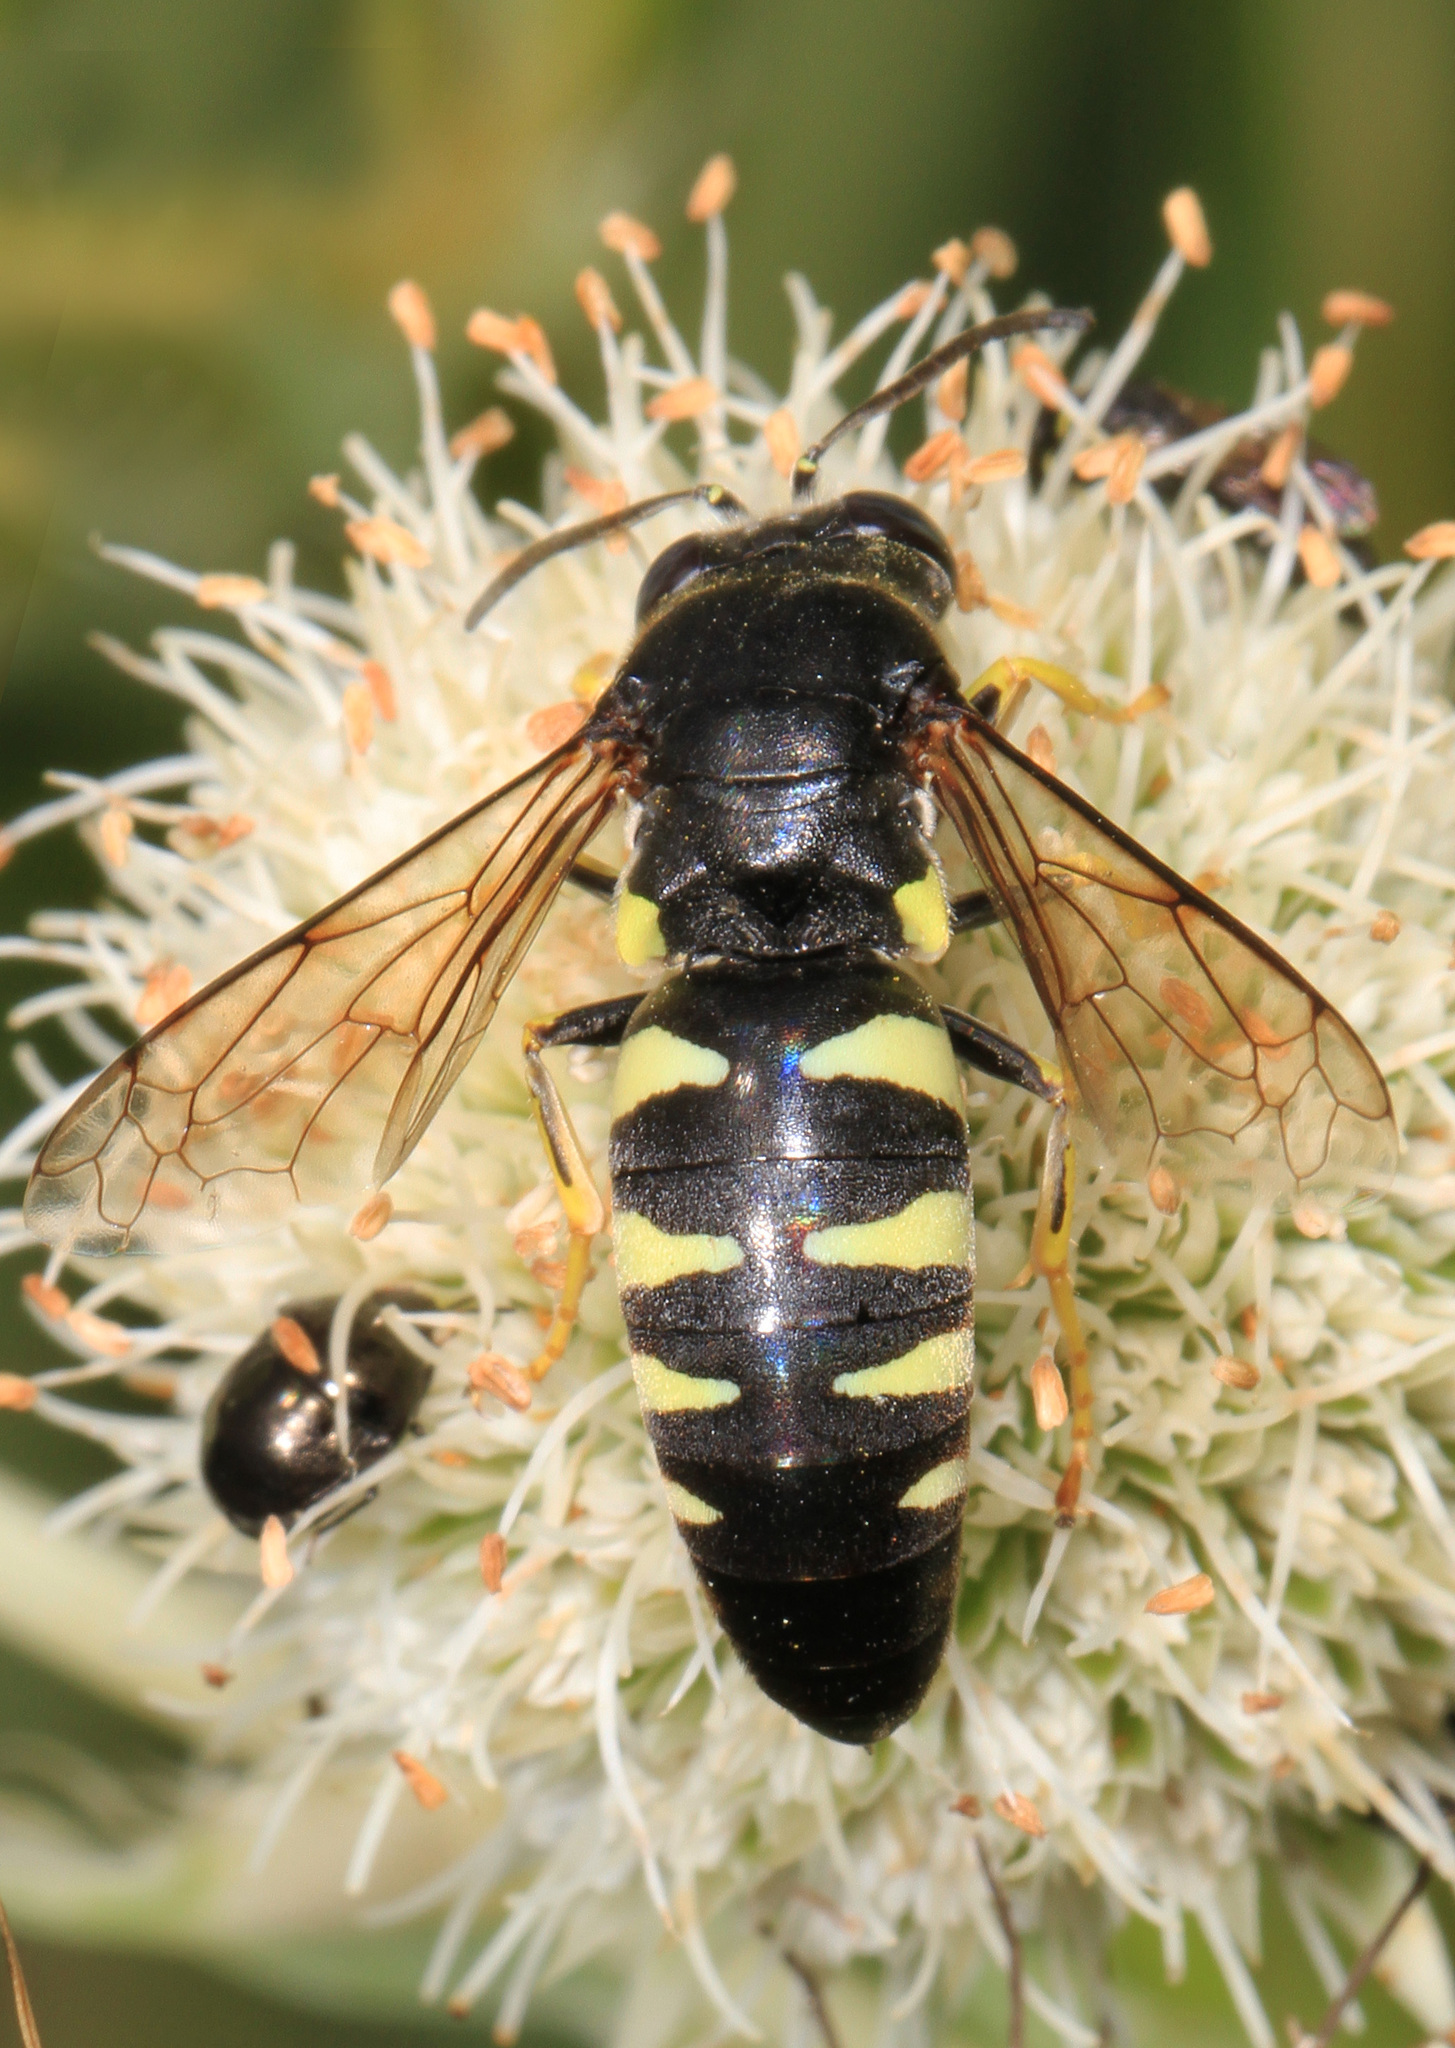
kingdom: Animalia
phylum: Arthropoda
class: Insecta
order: Hymenoptera
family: Crabronidae
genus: Bicyrtes
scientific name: Bicyrtes quadrifasciatus
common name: Four-banded stink bug hunter wasp
